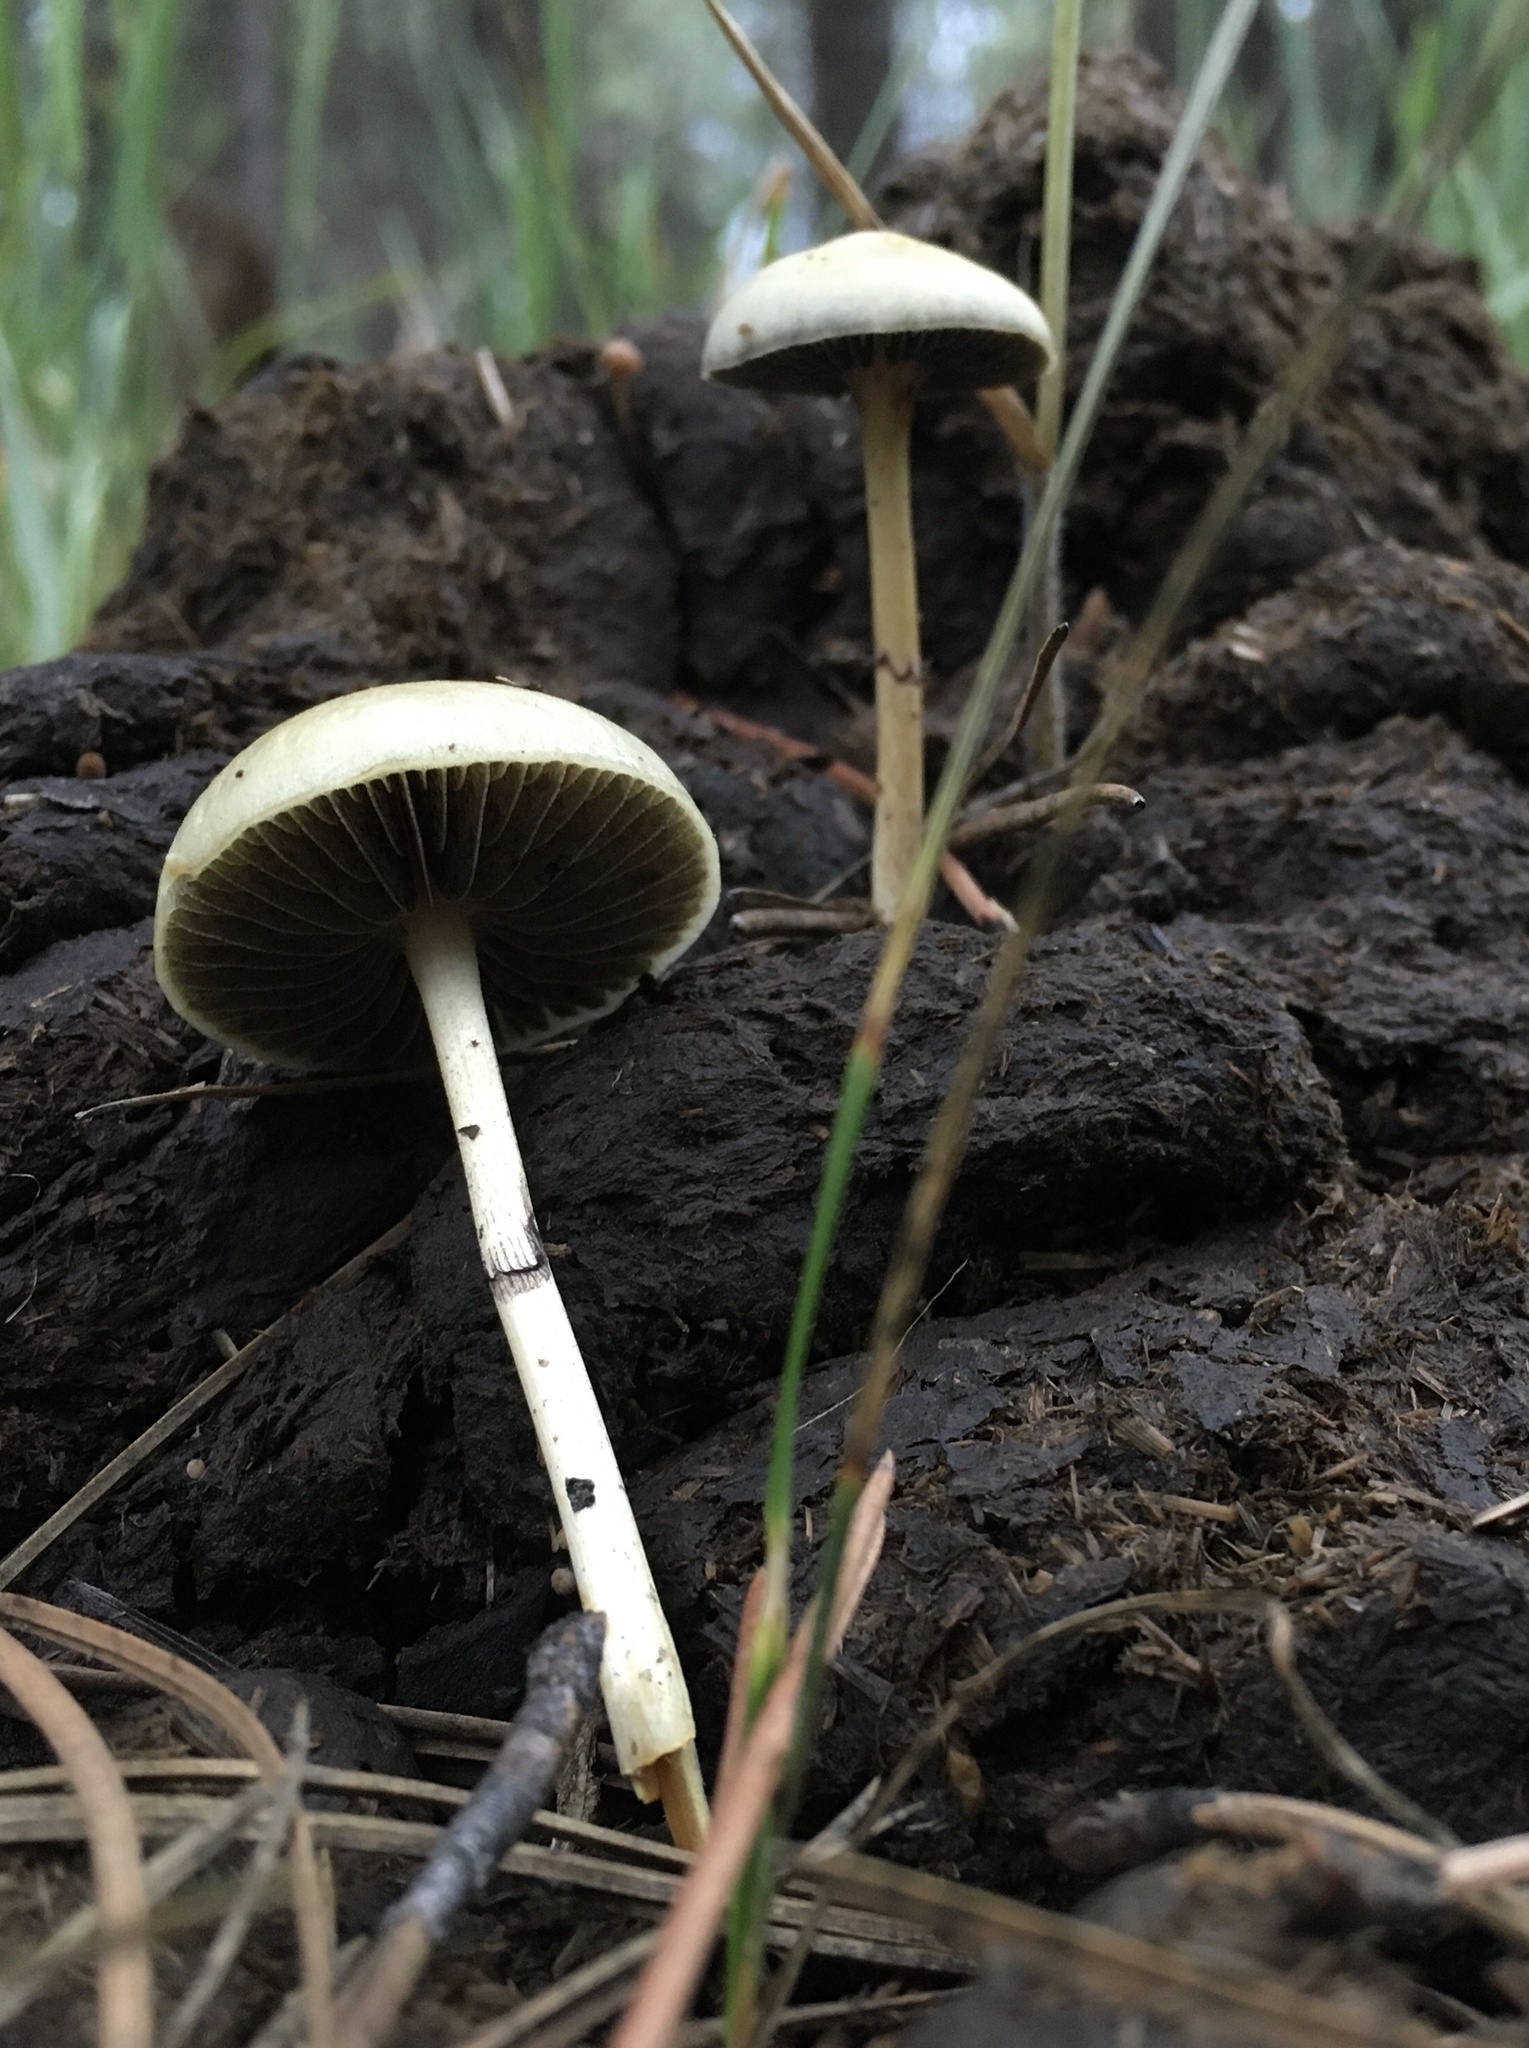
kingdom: Fungi
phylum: Basidiomycota
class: Agaricomycetes
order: Agaricales
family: Strophariaceae
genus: Protostropharia
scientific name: Protostropharia semiglobata
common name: Dung roundhead
